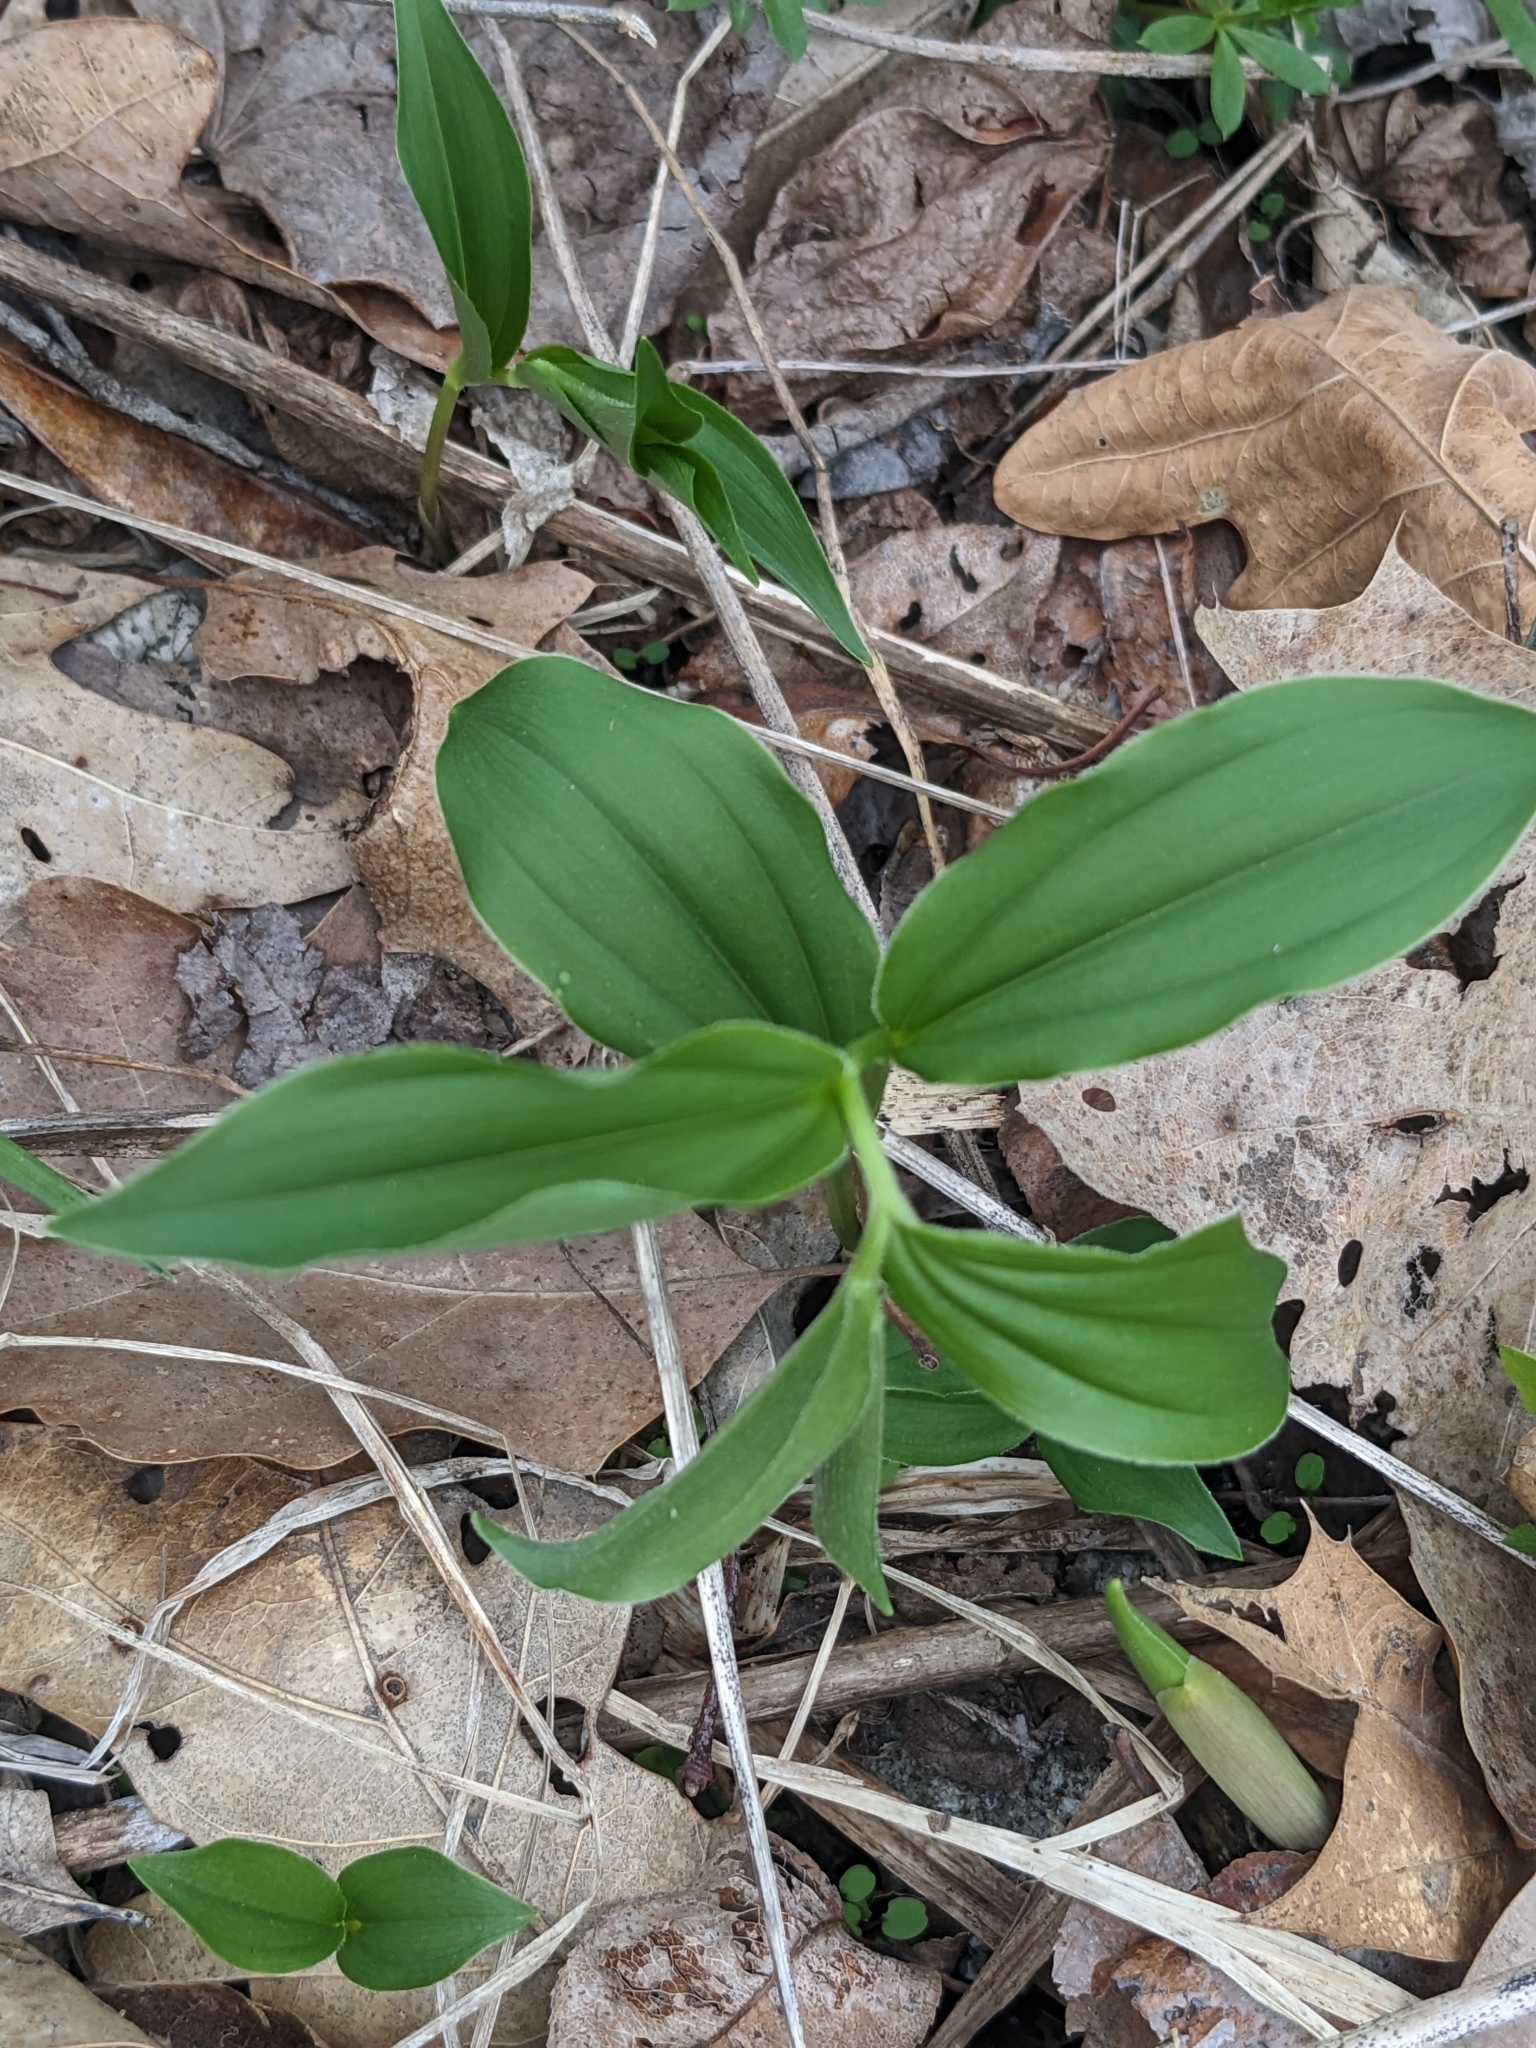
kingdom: Plantae
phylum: Tracheophyta
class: Liliopsida
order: Asparagales
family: Asparagaceae
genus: Maianthemum
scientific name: Maianthemum racemosum
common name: False spikenard
